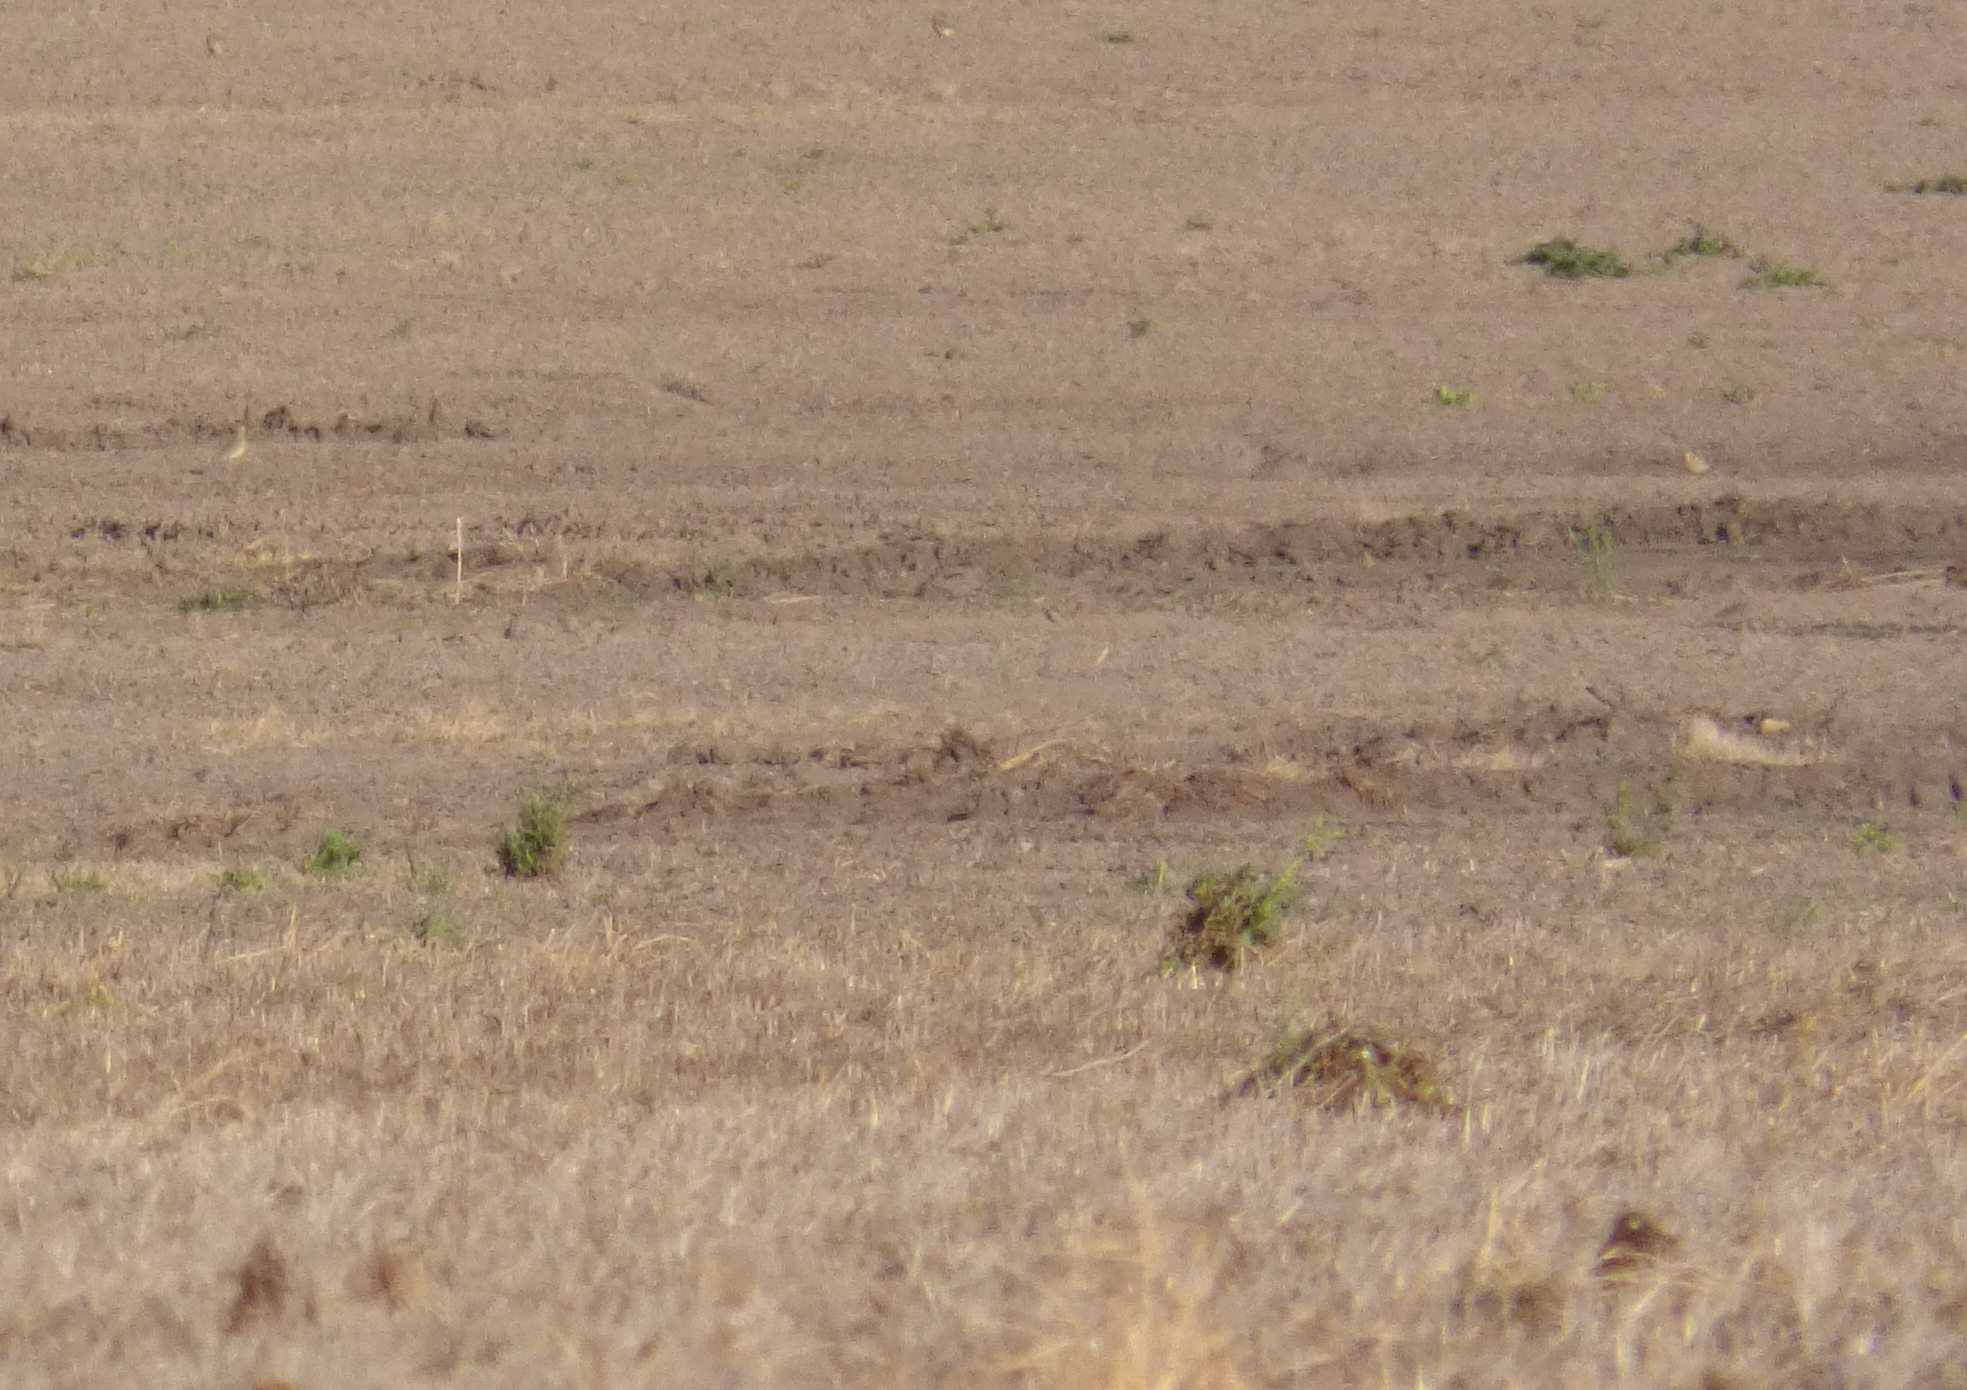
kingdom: Animalia
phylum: Chordata
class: Aves
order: Charadriiformes
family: Charadriidae
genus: Oreopholus
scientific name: Oreopholus ruficollis
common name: Tawny-throated dotterel
